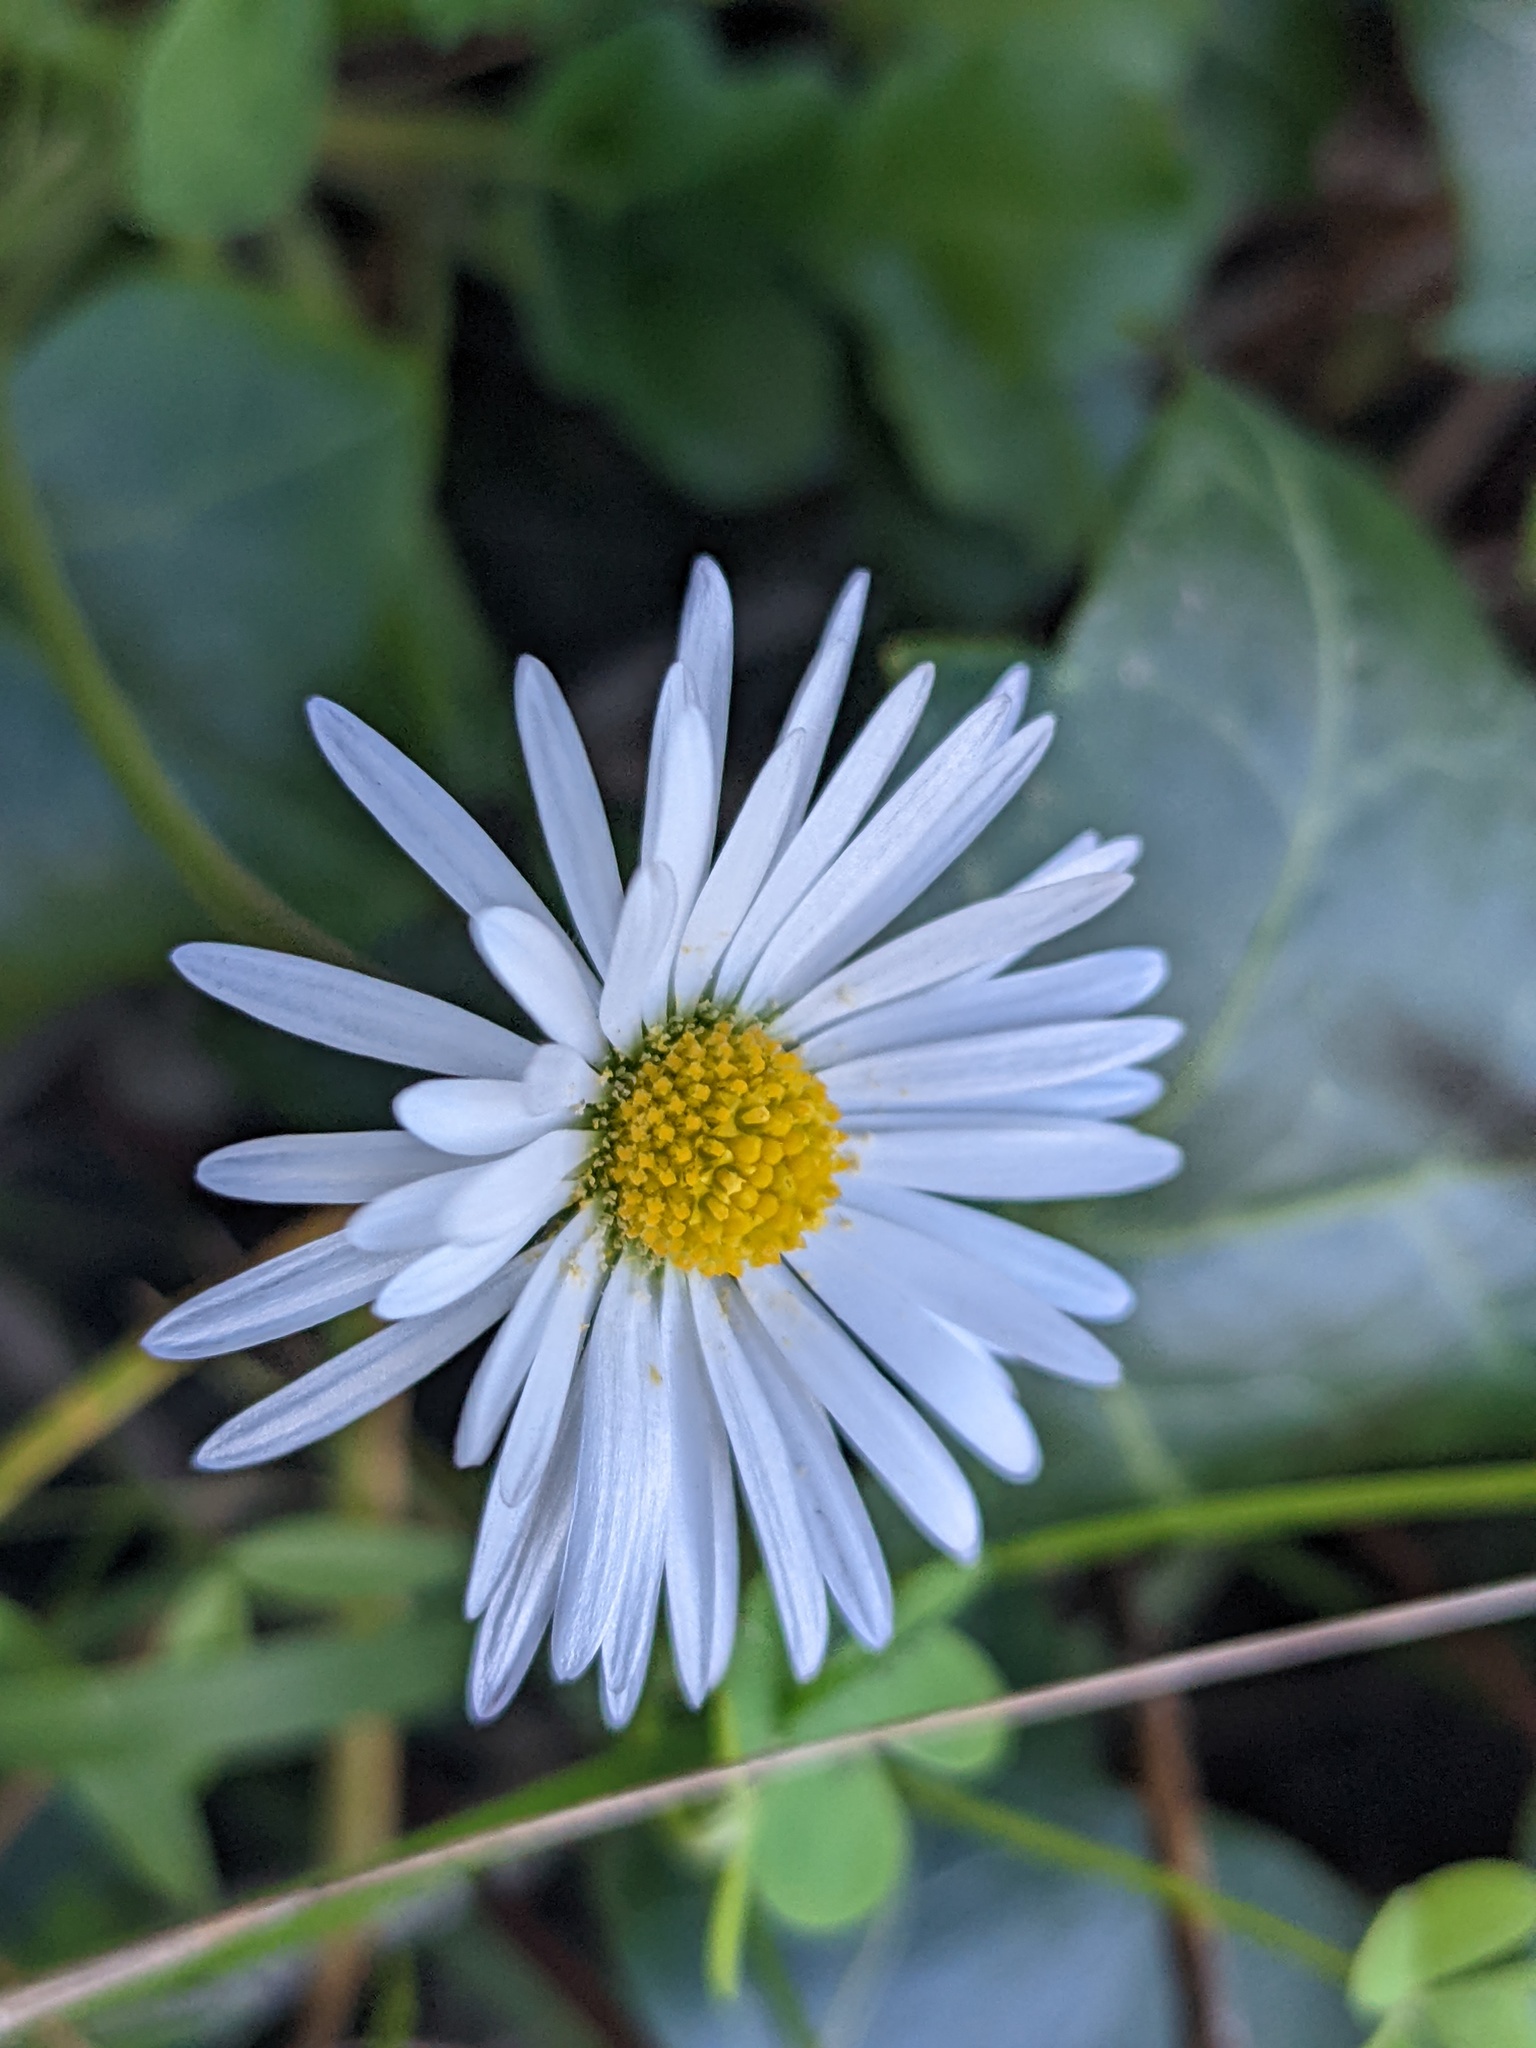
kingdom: Plantae
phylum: Tracheophyta
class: Magnoliopsida
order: Asterales
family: Asteraceae
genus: Bellis
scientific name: Bellis perennis
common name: Lawndaisy
